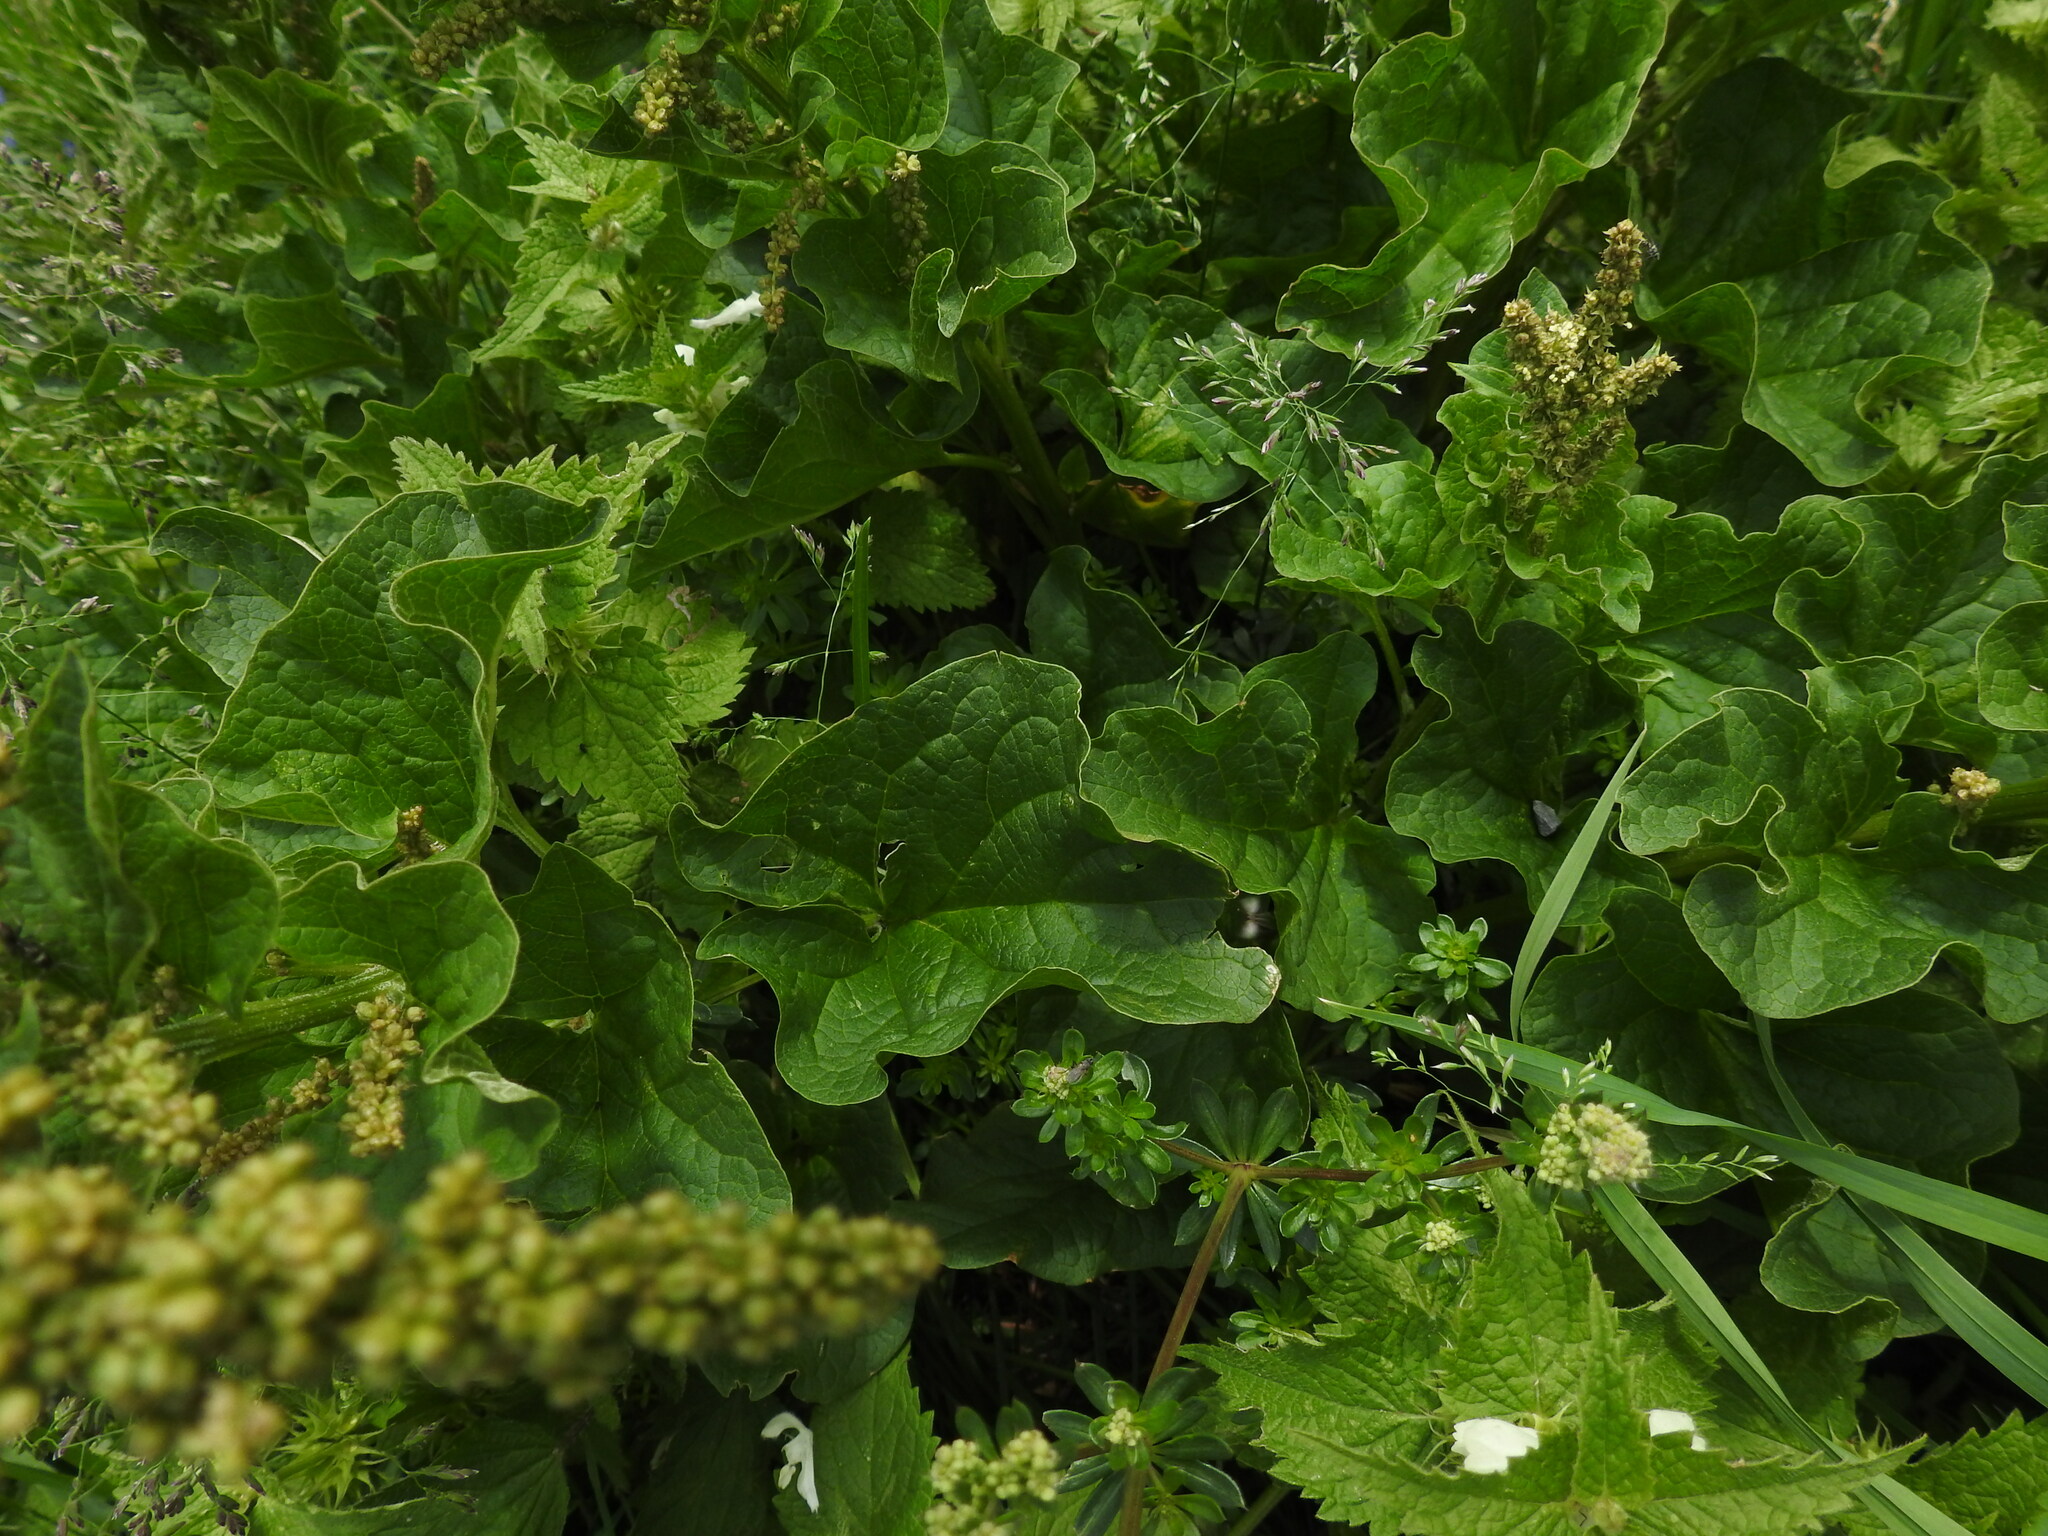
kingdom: Plantae
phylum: Tracheophyta
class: Magnoliopsida
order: Caryophyllales
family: Amaranthaceae
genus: Blitum
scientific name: Blitum bonus-henricus
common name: Good king henry
